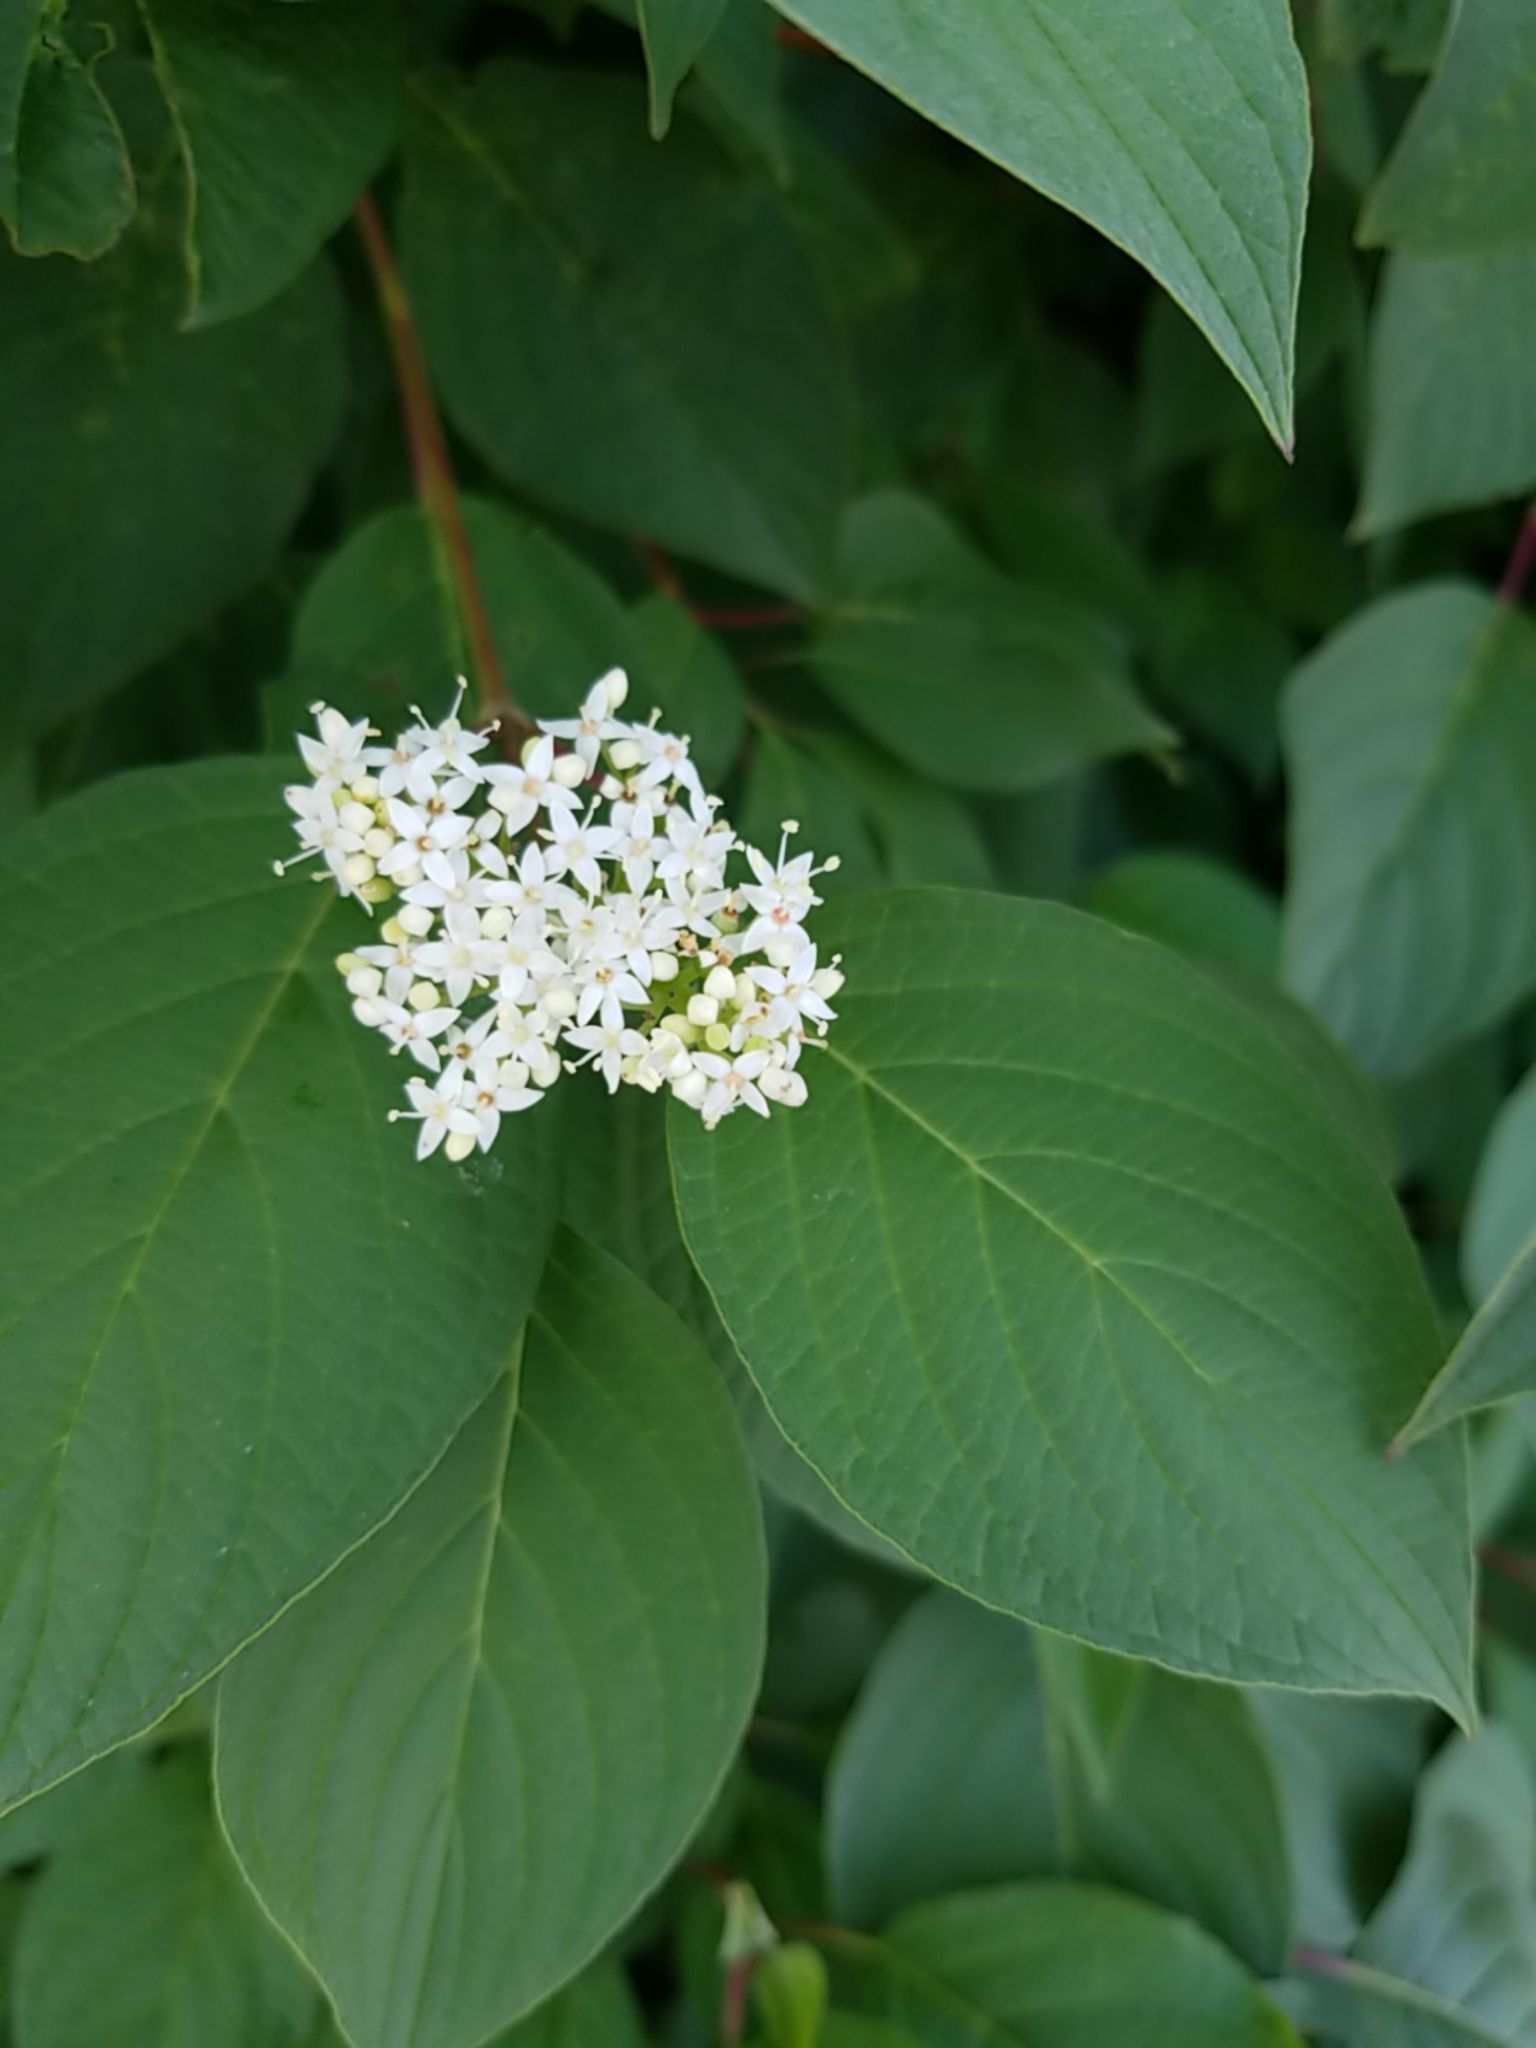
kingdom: Plantae
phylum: Tracheophyta
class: Magnoliopsida
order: Cornales
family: Cornaceae
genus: Cornus
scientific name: Cornus sericea
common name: Red-osier dogwood
